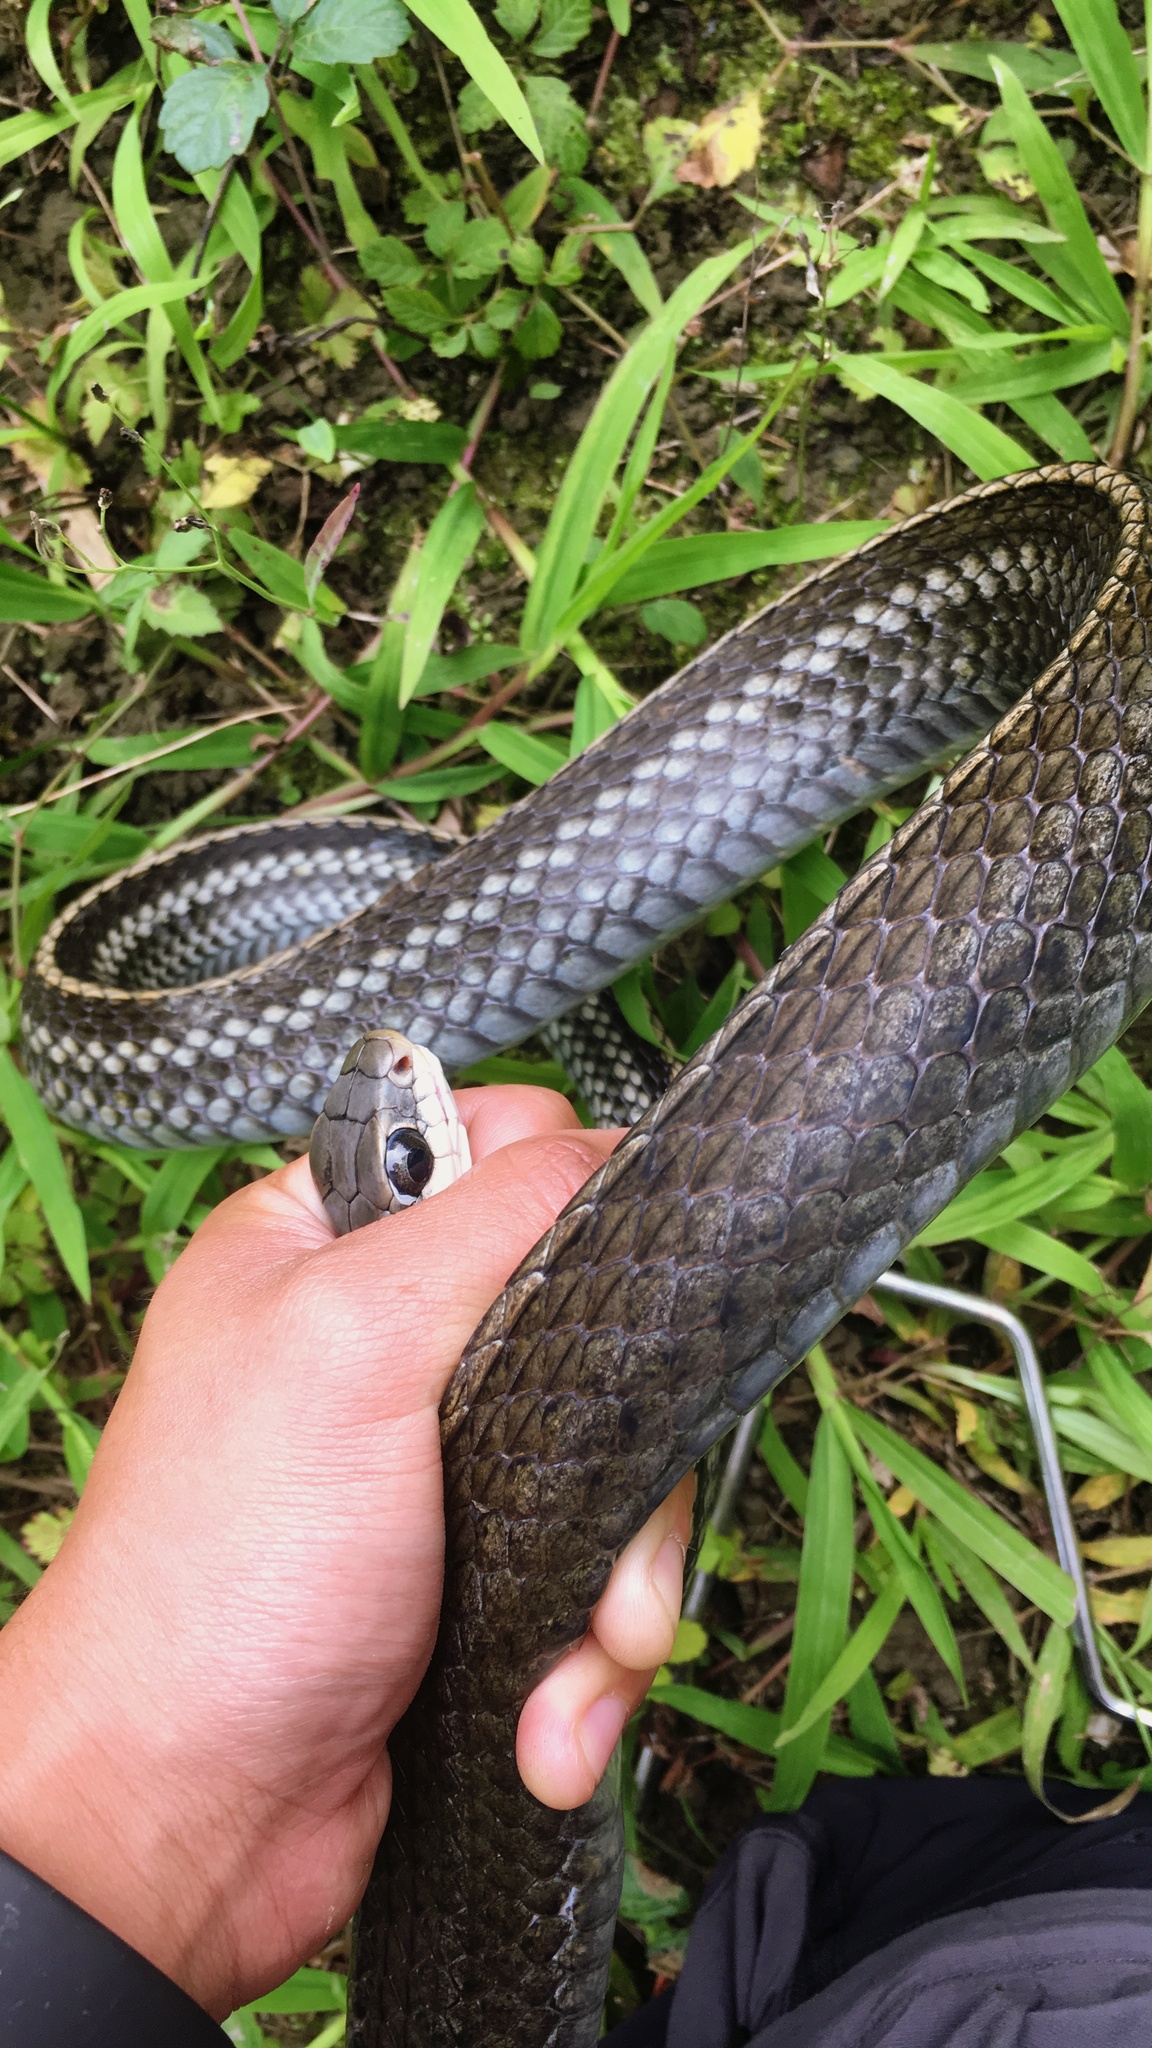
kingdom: Animalia
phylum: Chordata
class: Squamata
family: Colubridae
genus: Ptyas
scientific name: Ptyas dhumnades
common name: Black-striped rat snake
